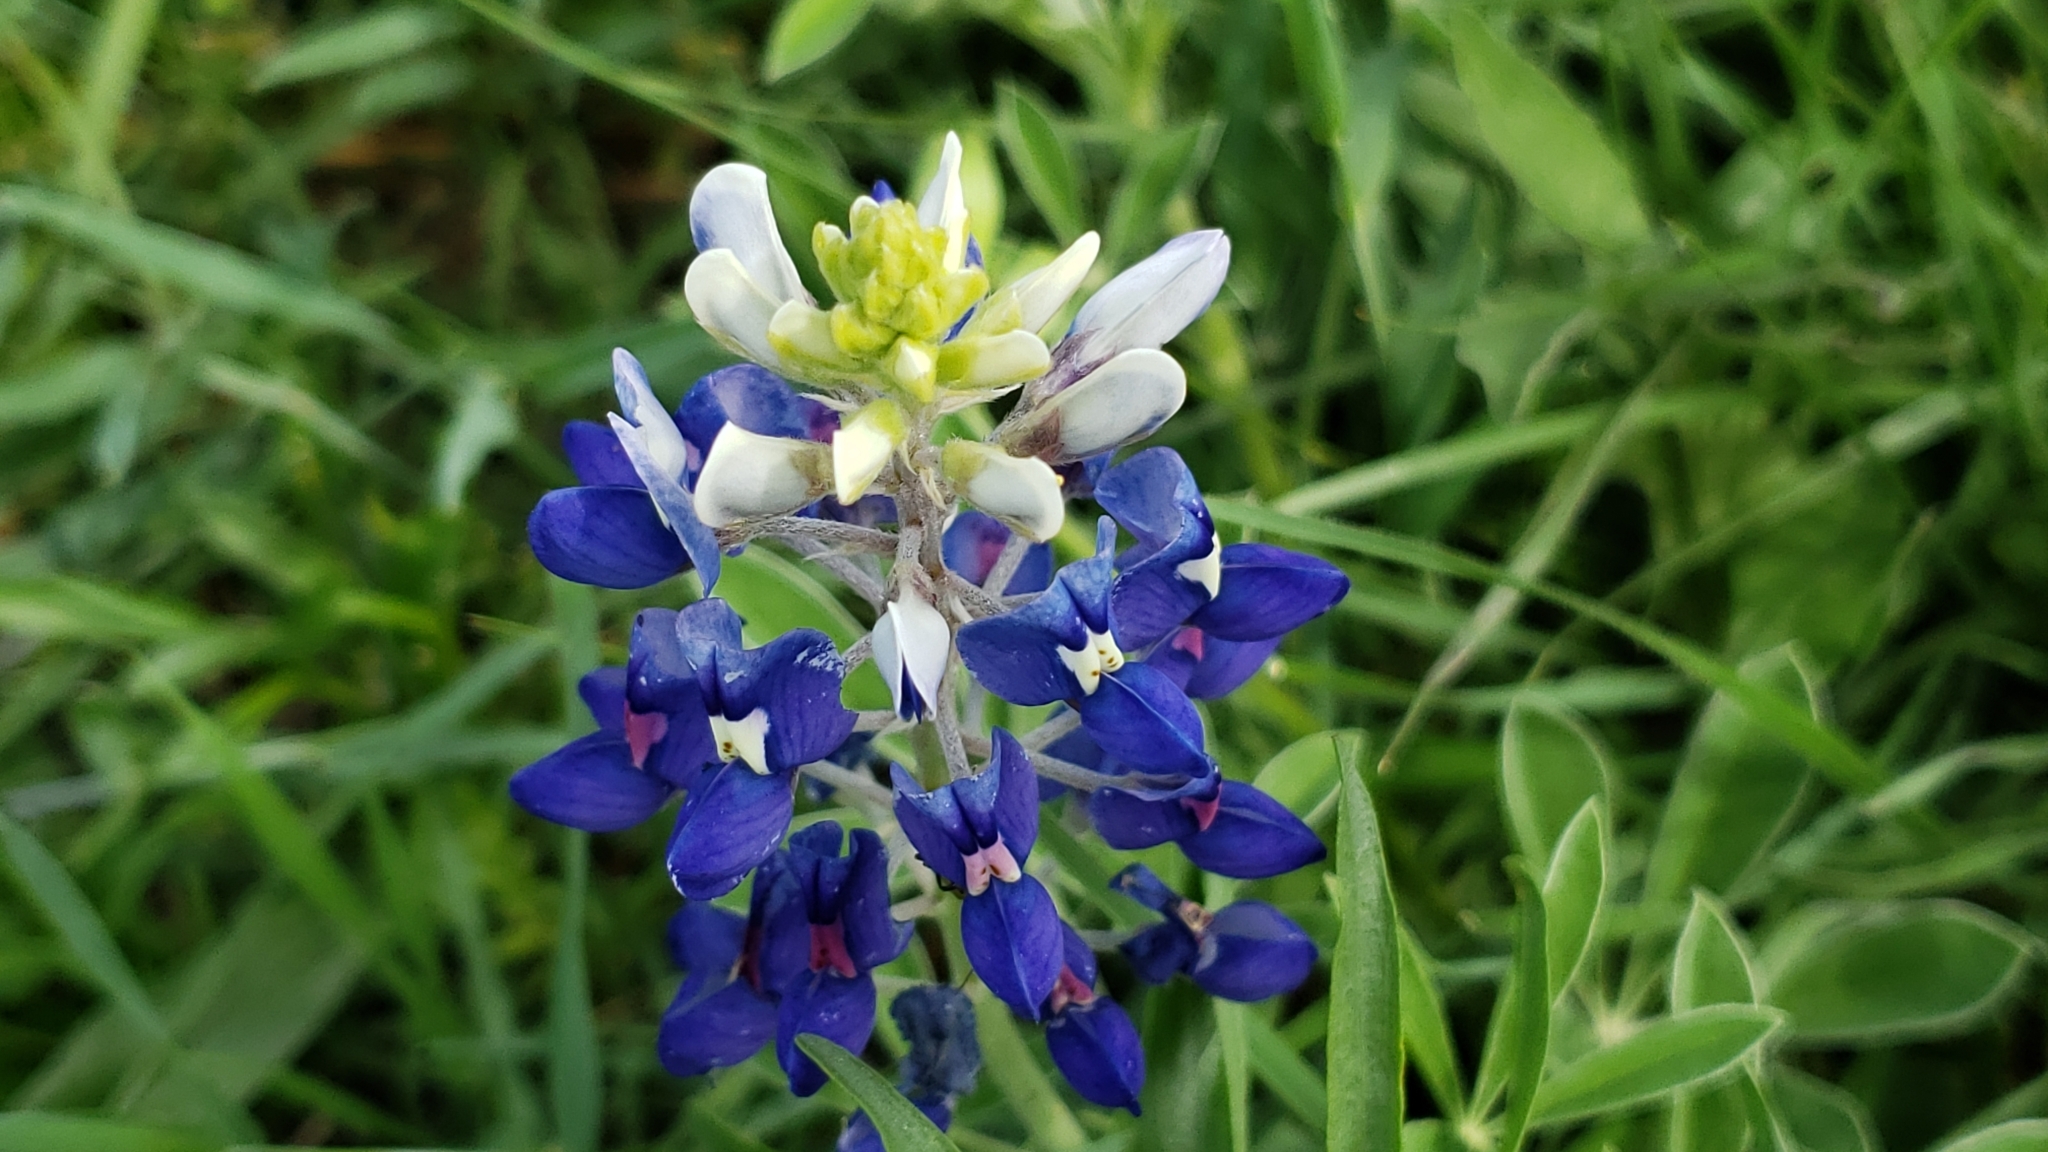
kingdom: Plantae
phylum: Tracheophyta
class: Magnoliopsida
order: Fabales
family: Fabaceae
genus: Lupinus
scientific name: Lupinus texensis
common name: Texas bluebonnet
